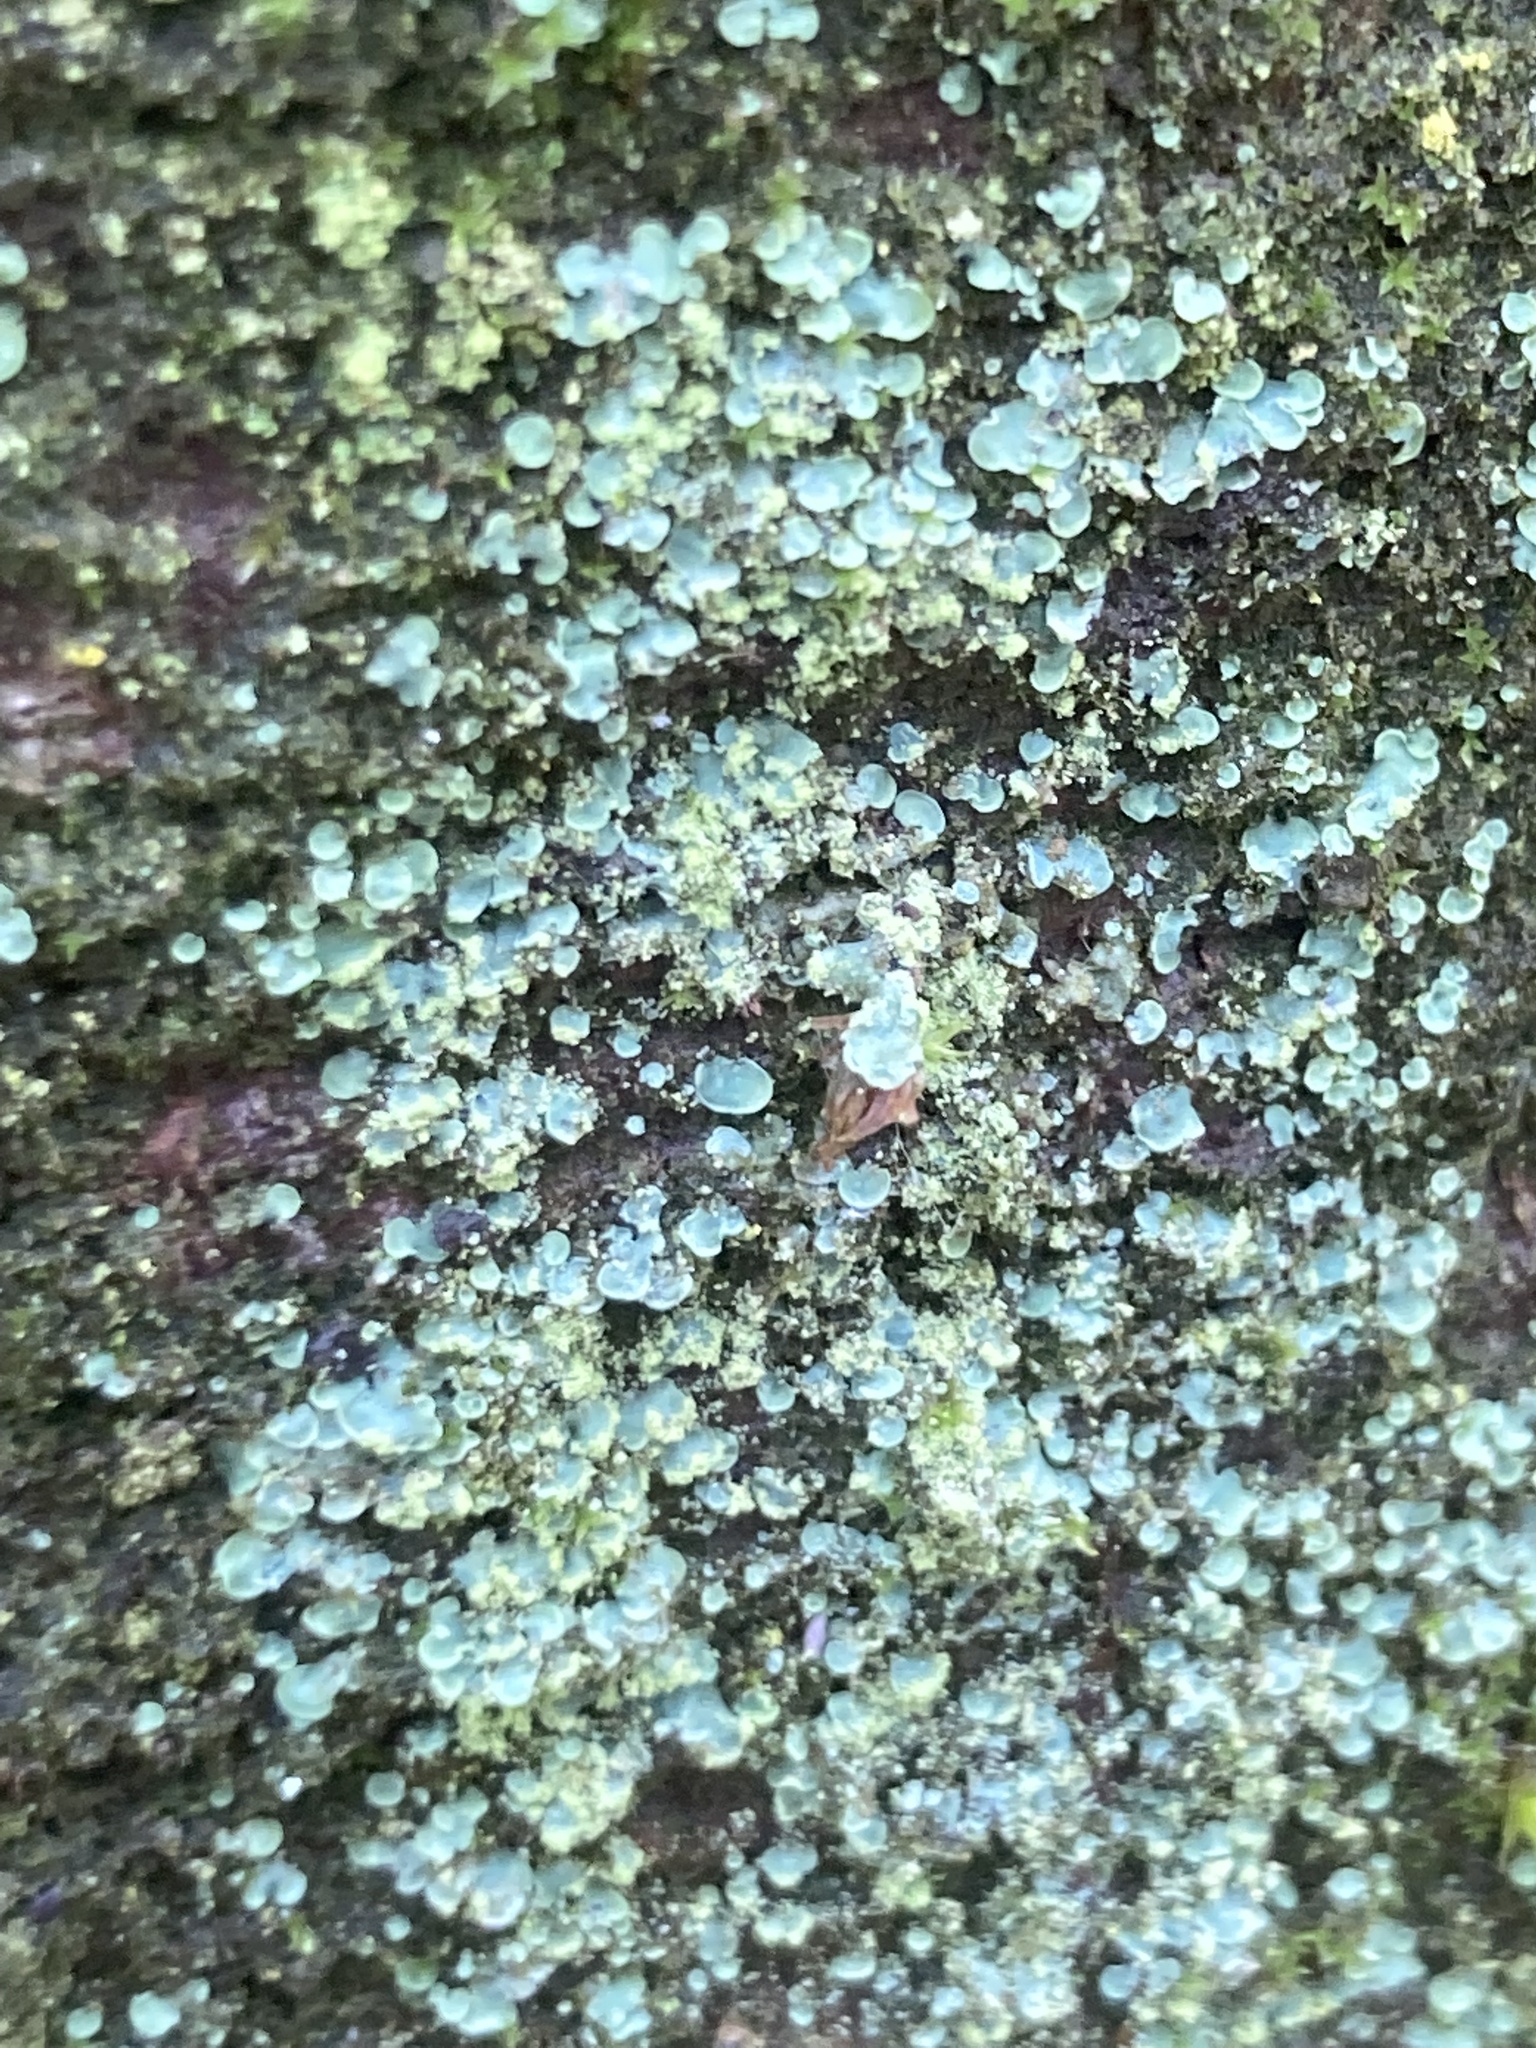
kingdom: Fungi
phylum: Ascomycota
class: Eurotiomycetes
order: Verrucariales
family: Verrucariaceae
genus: Normandina
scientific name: Normandina pulchella
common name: Elf ears lichen
